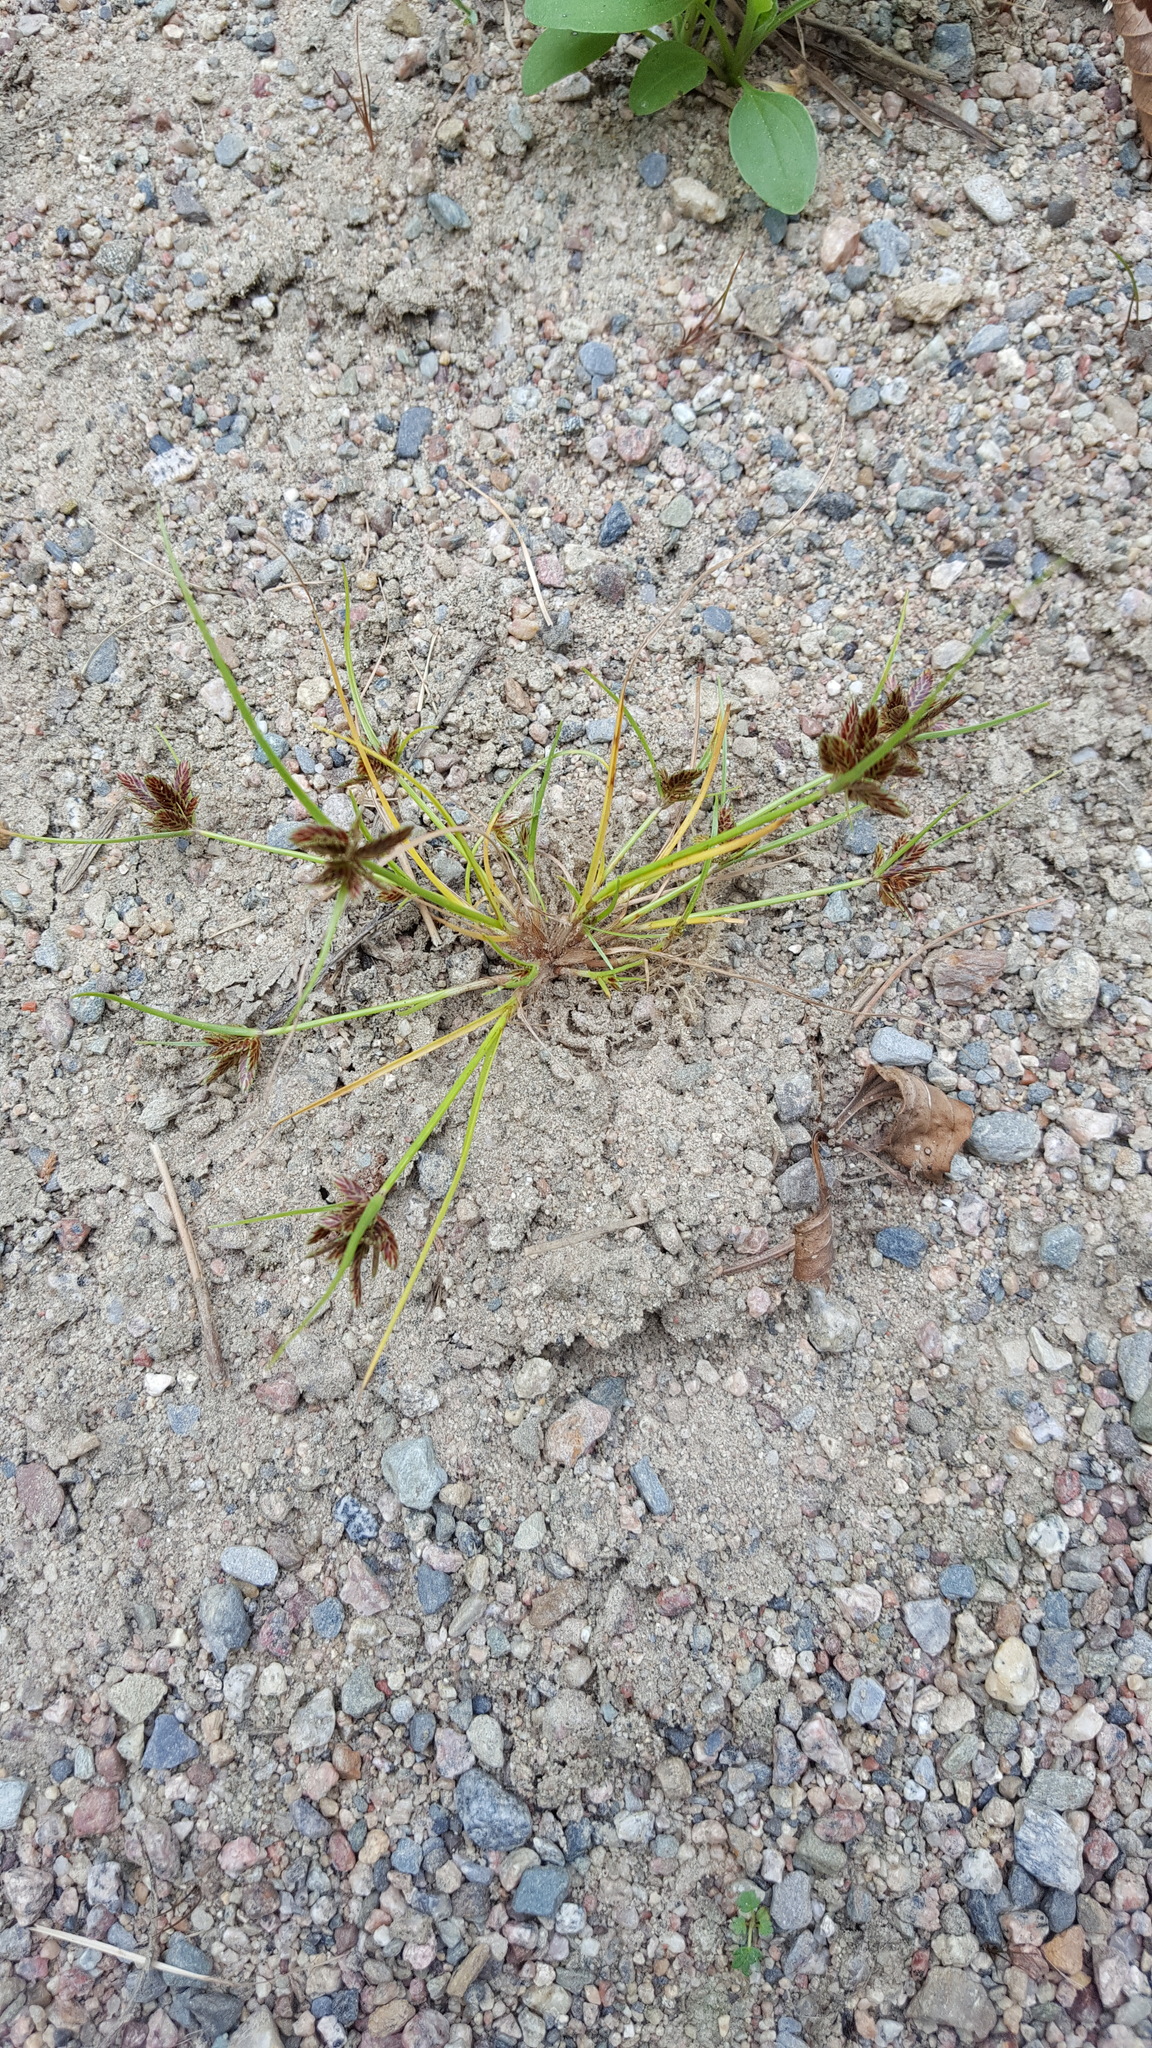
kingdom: Plantae
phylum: Tracheophyta
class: Liliopsida
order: Poales
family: Cyperaceae
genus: Cyperus
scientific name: Cyperus bipartitus
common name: Brook flatsedge
